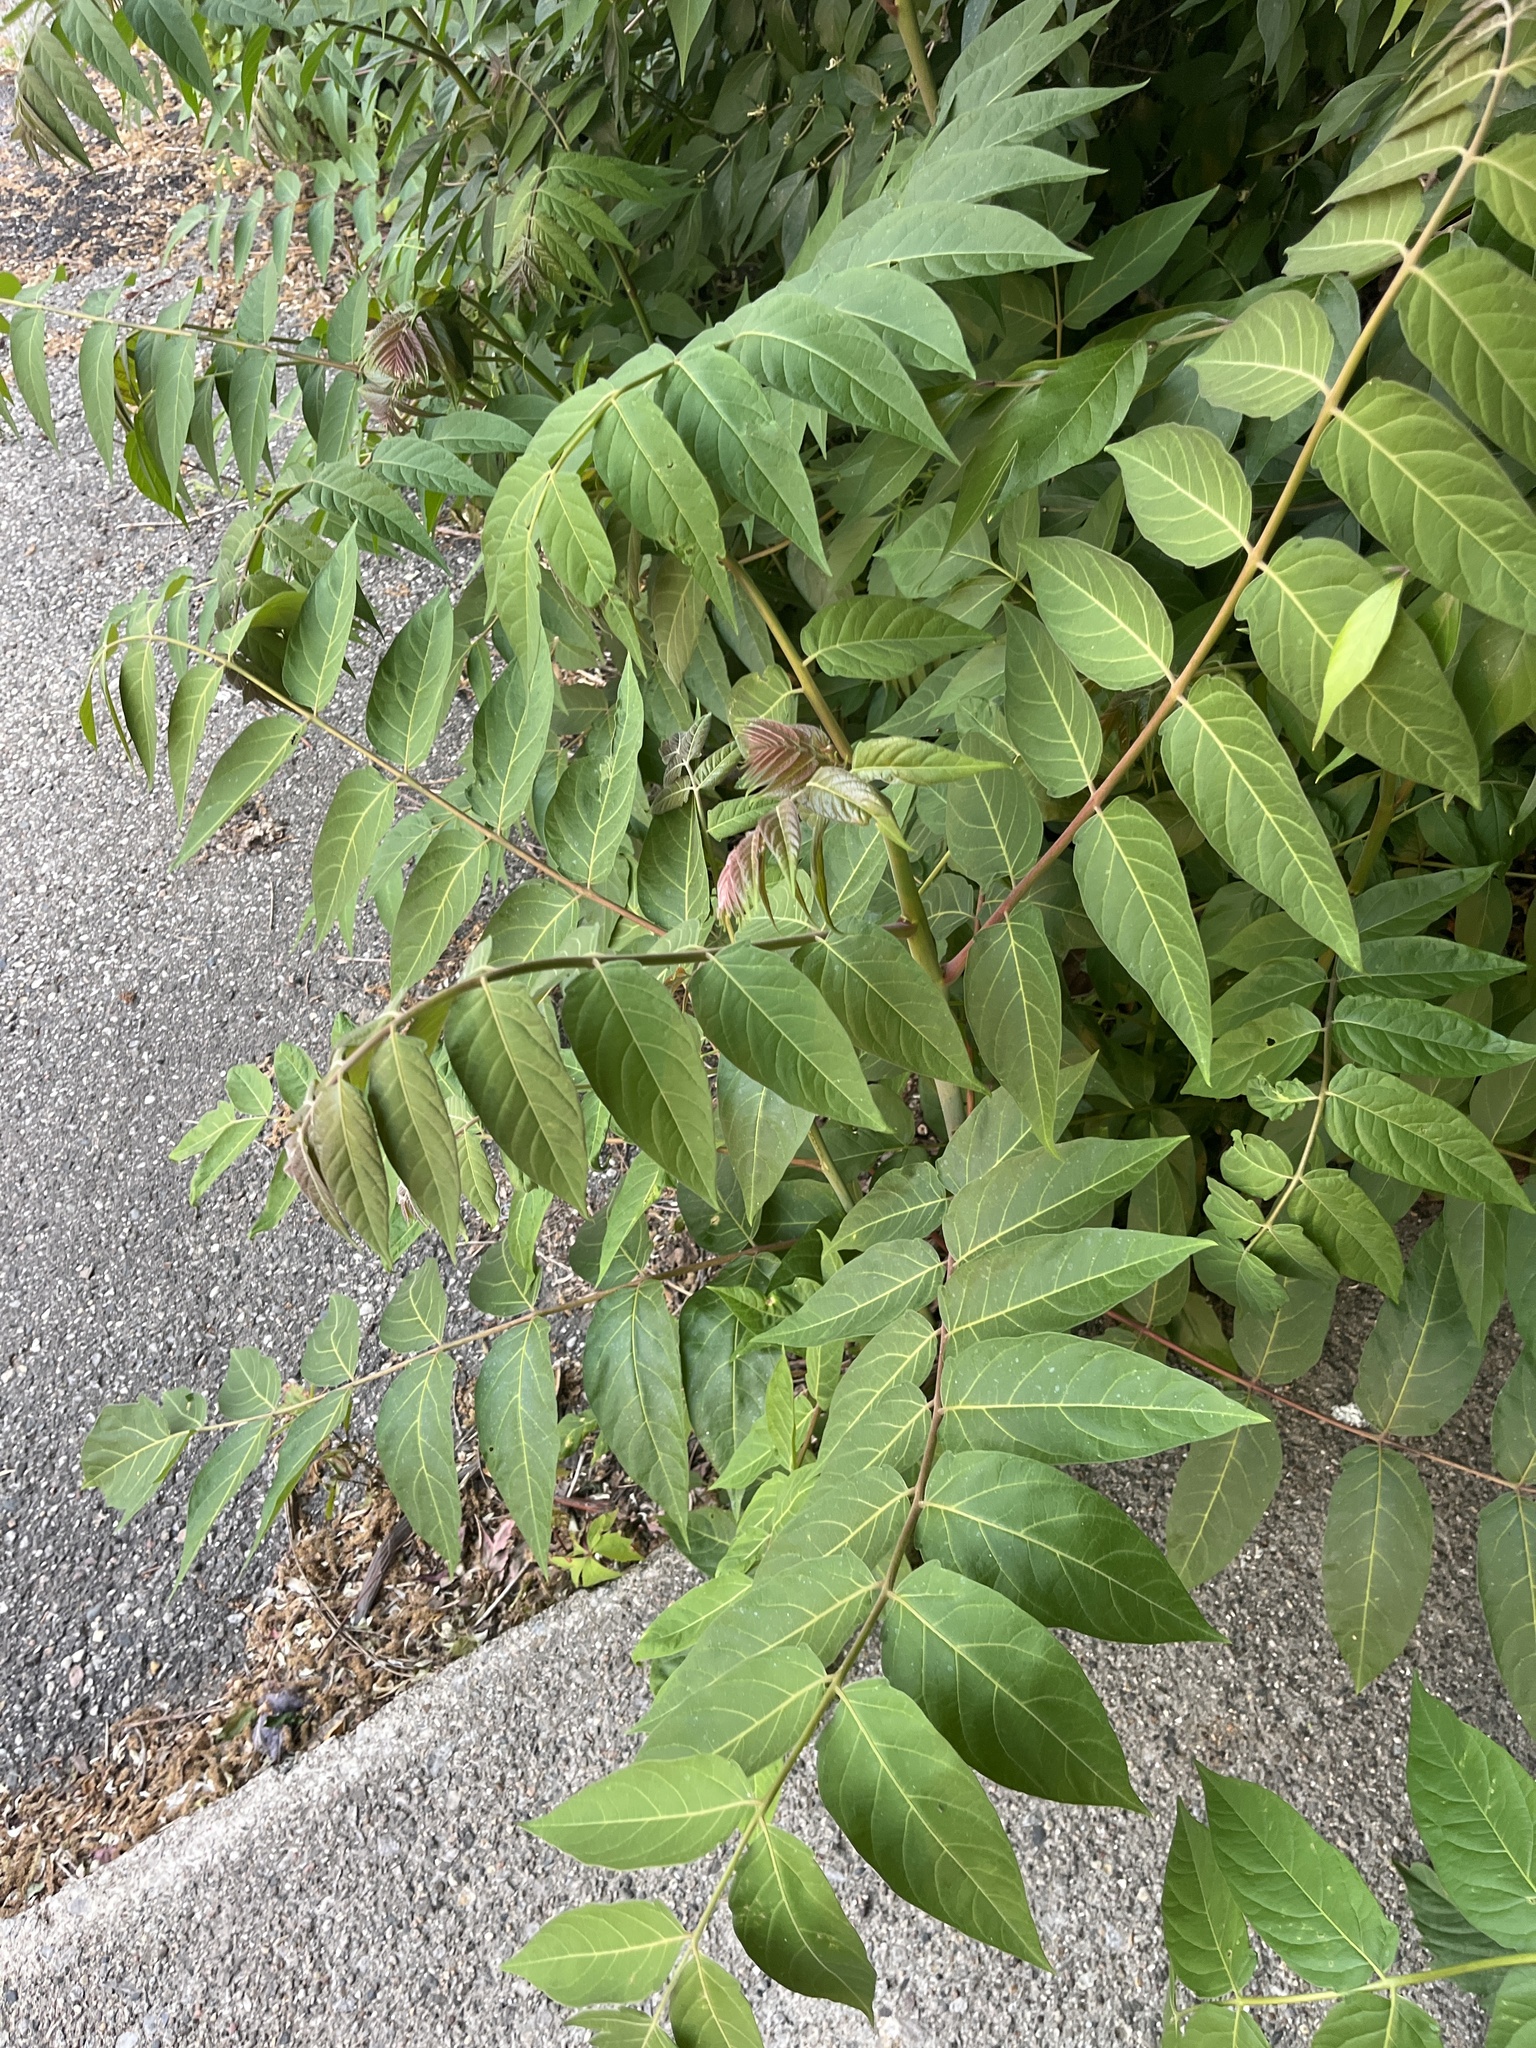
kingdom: Plantae
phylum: Tracheophyta
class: Magnoliopsida
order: Sapindales
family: Simaroubaceae
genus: Ailanthus
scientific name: Ailanthus altissima
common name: Tree-of-heaven
